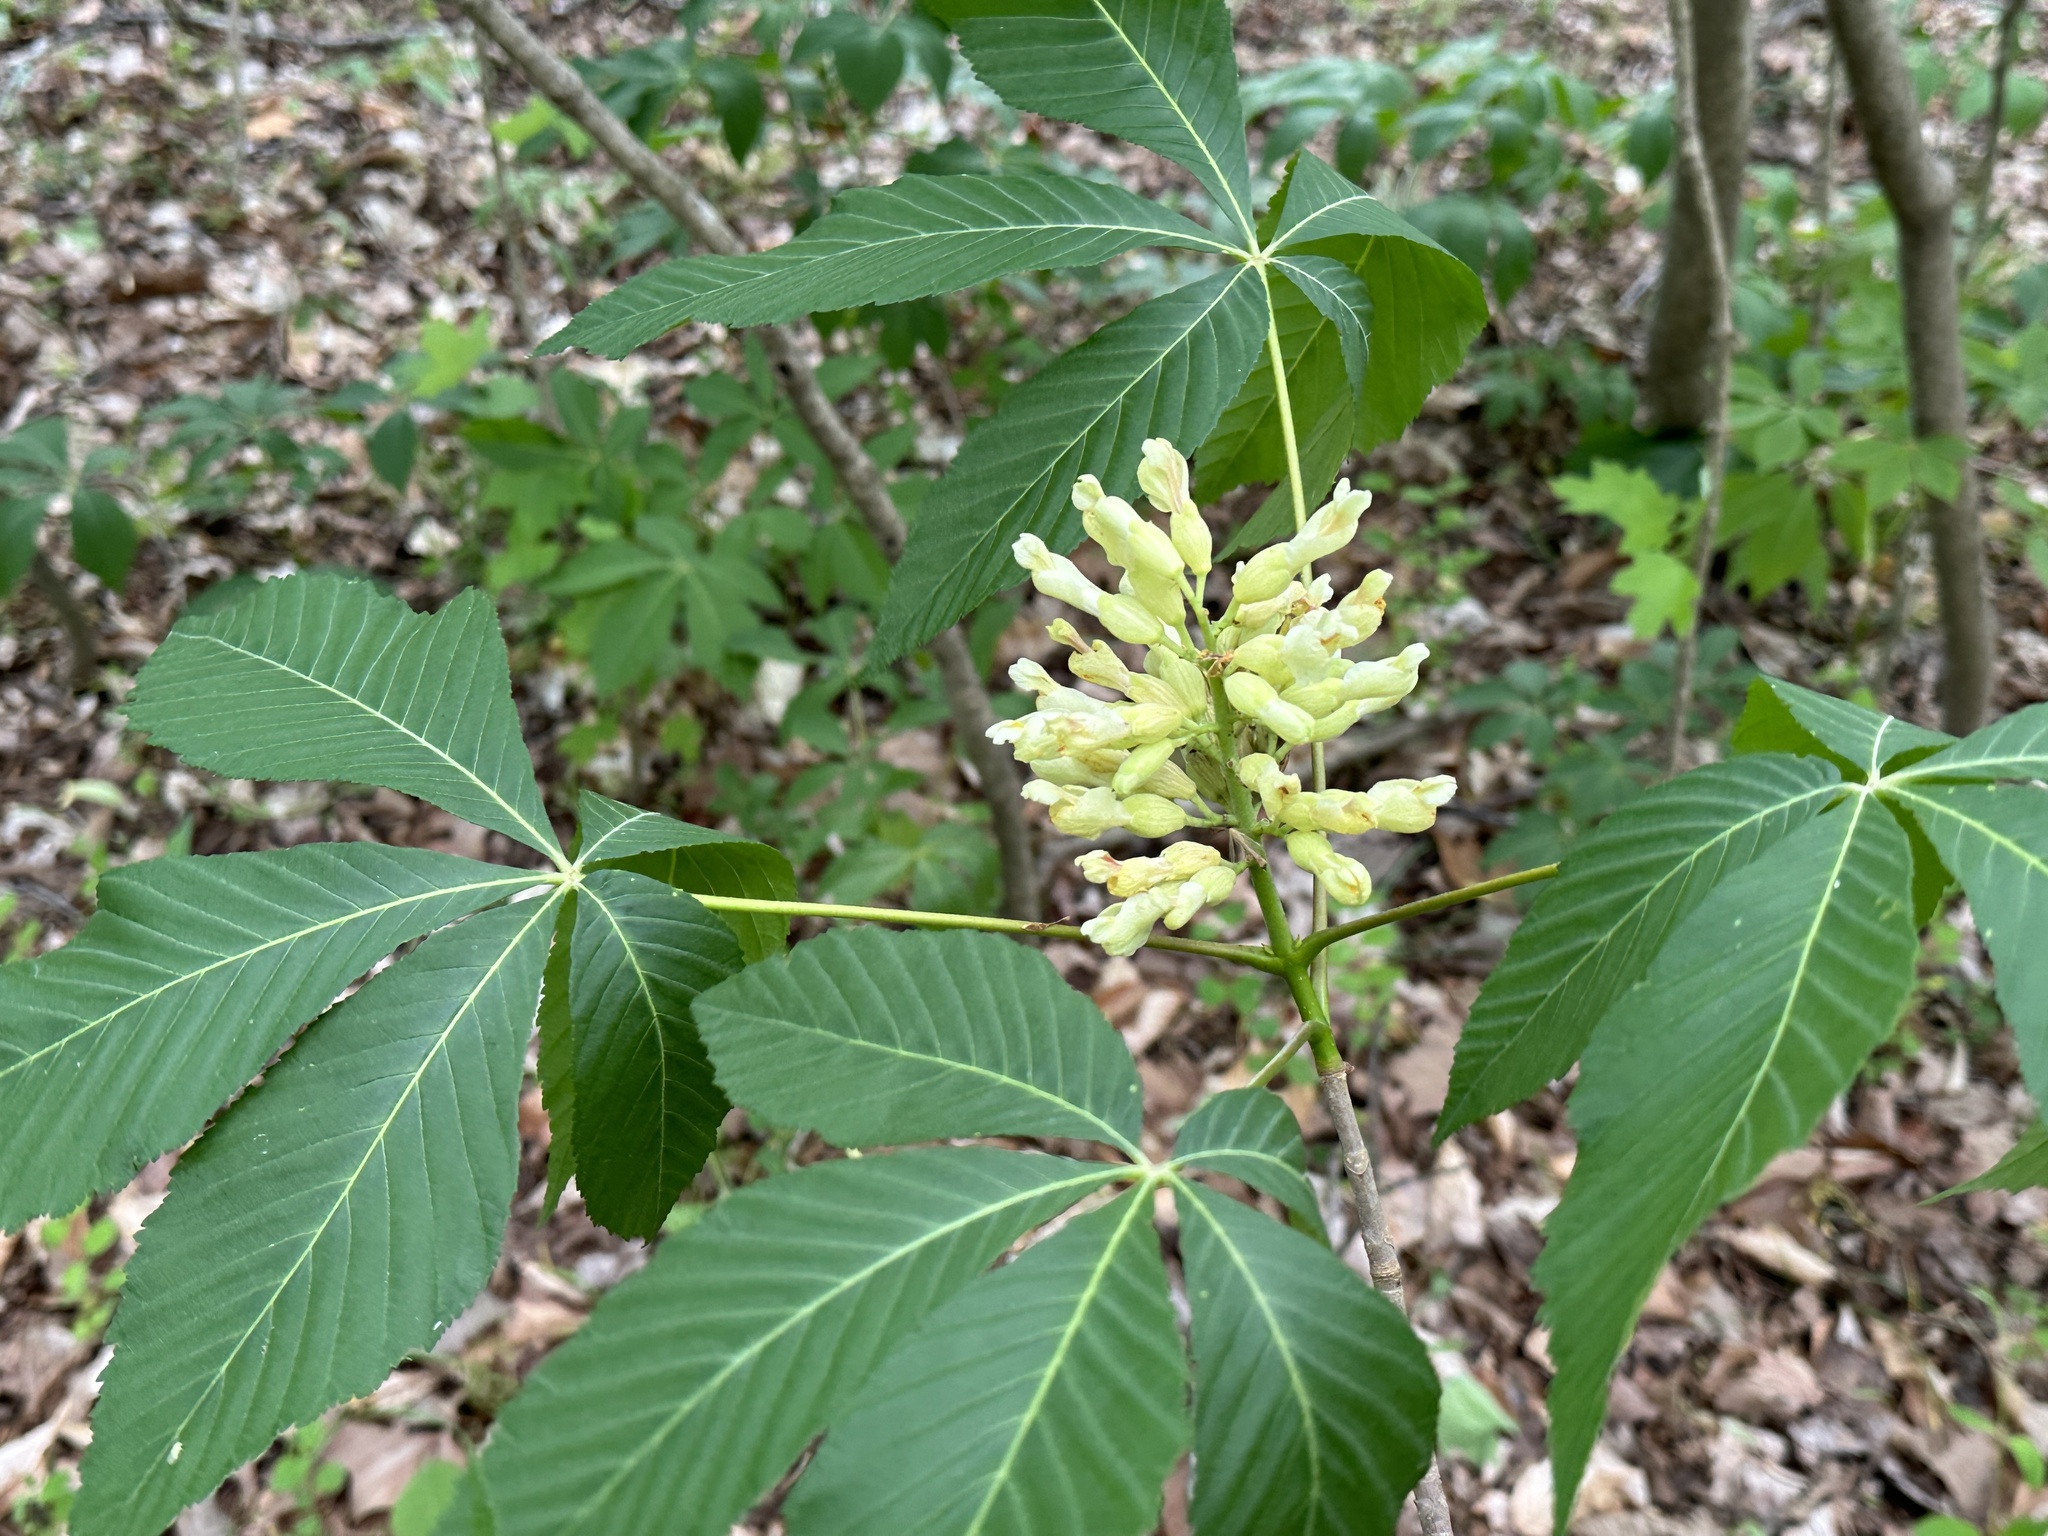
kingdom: Plantae
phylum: Tracheophyta
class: Magnoliopsida
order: Sapindales
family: Sapindaceae
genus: Aesculus
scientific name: Aesculus sylvatica
